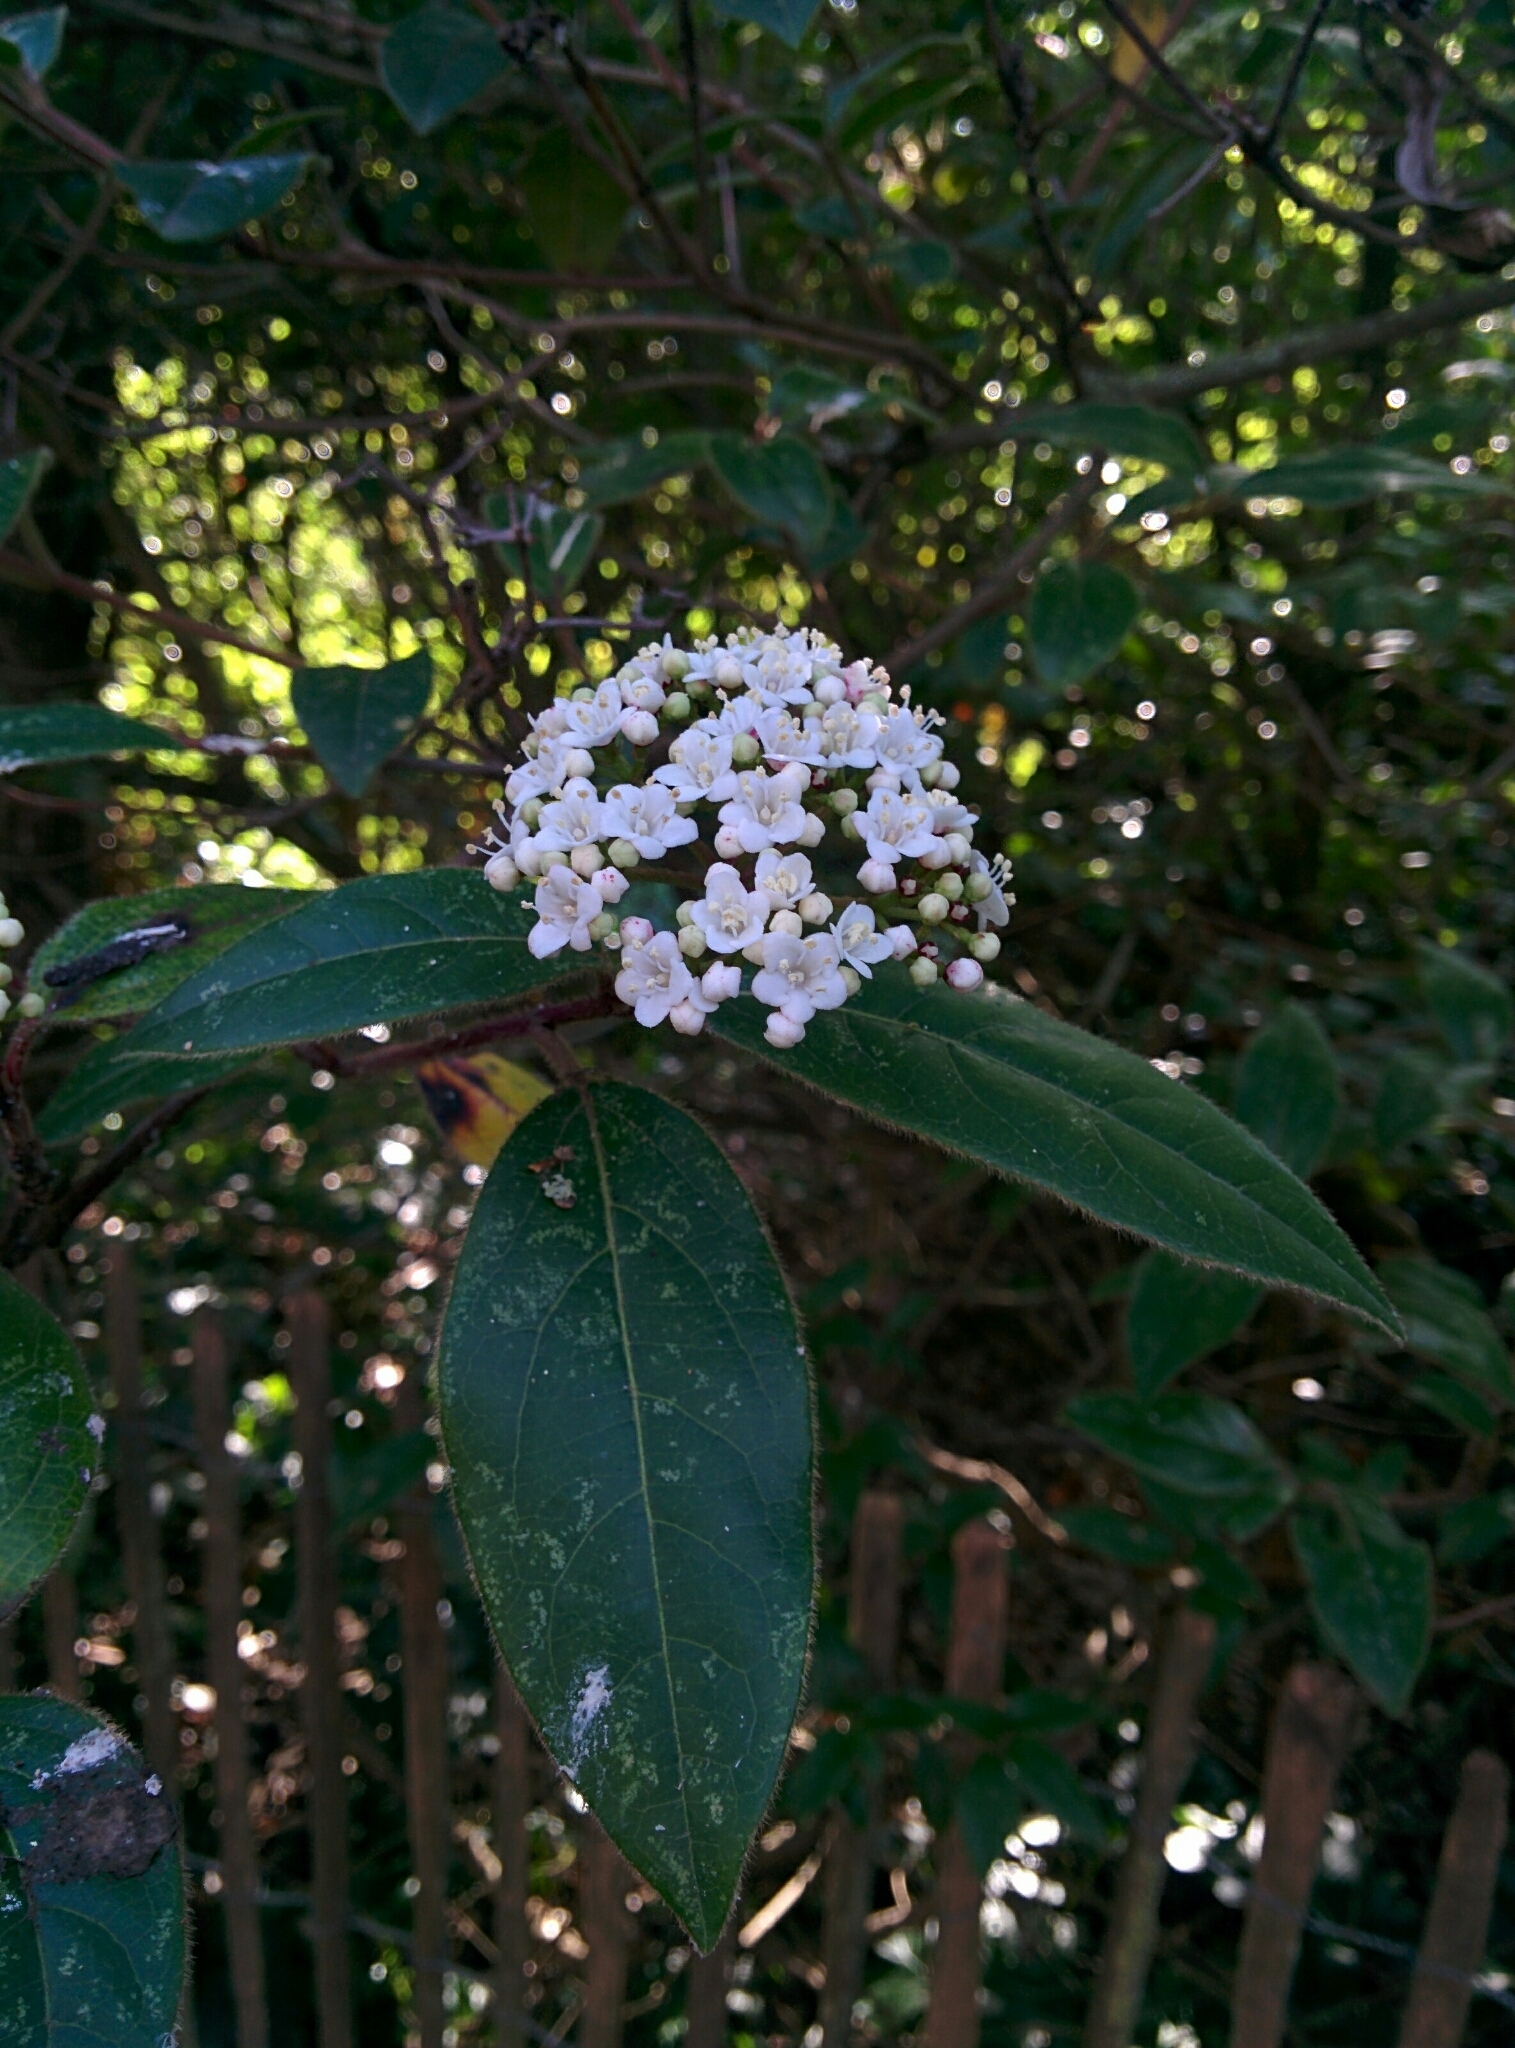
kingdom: Plantae
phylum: Tracheophyta
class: Magnoliopsida
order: Dipsacales
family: Viburnaceae
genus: Viburnum
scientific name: Viburnum tinus
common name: Laurustinus
